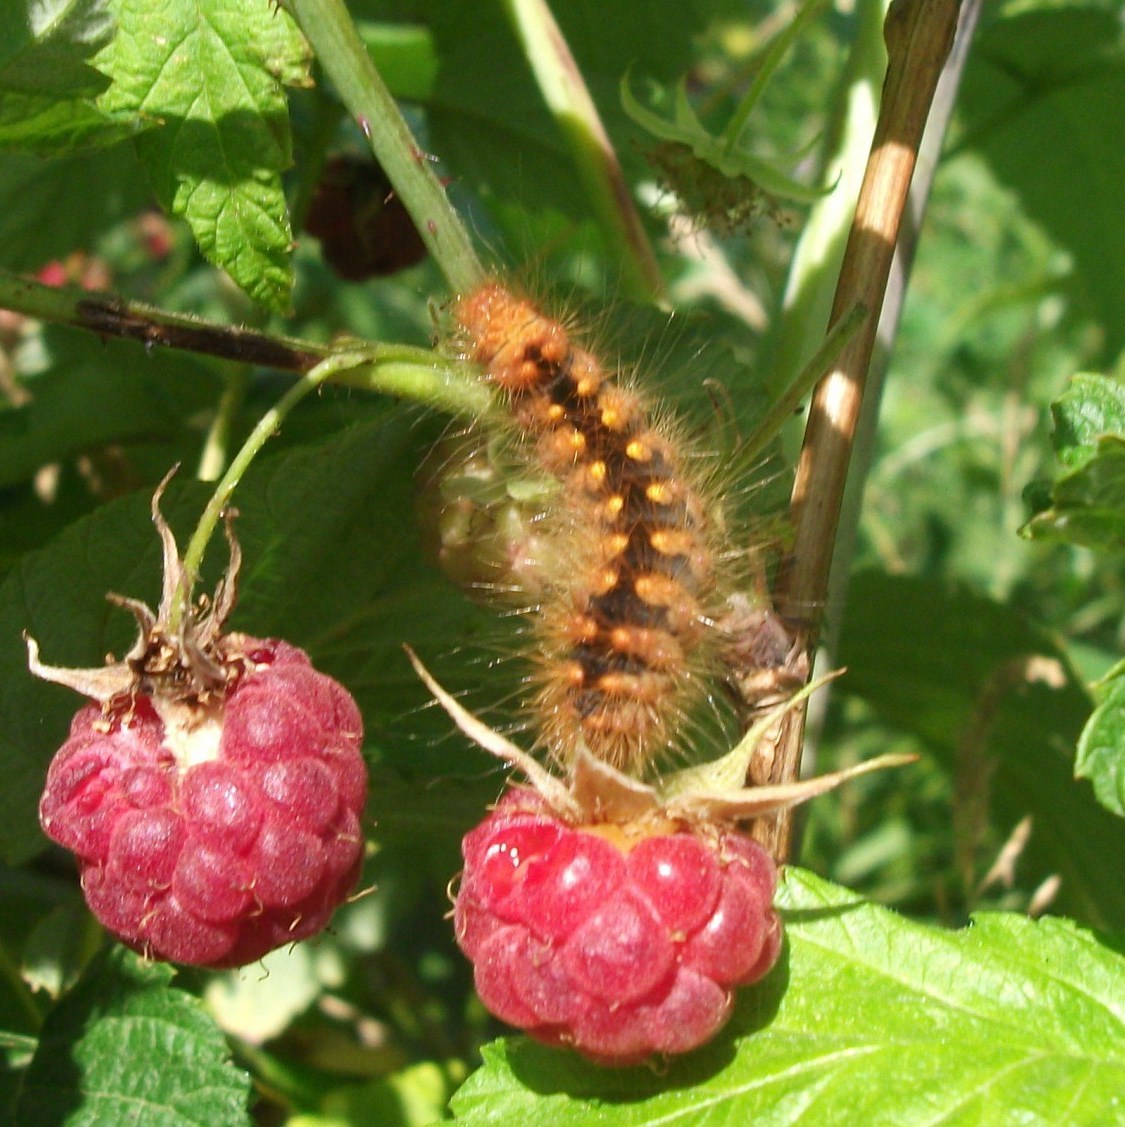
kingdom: Animalia
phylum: Arthropoda
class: Insecta
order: Lepidoptera
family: Noctuidae
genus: Acronicta
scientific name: Acronicta auricoma
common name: Scarce dagger
